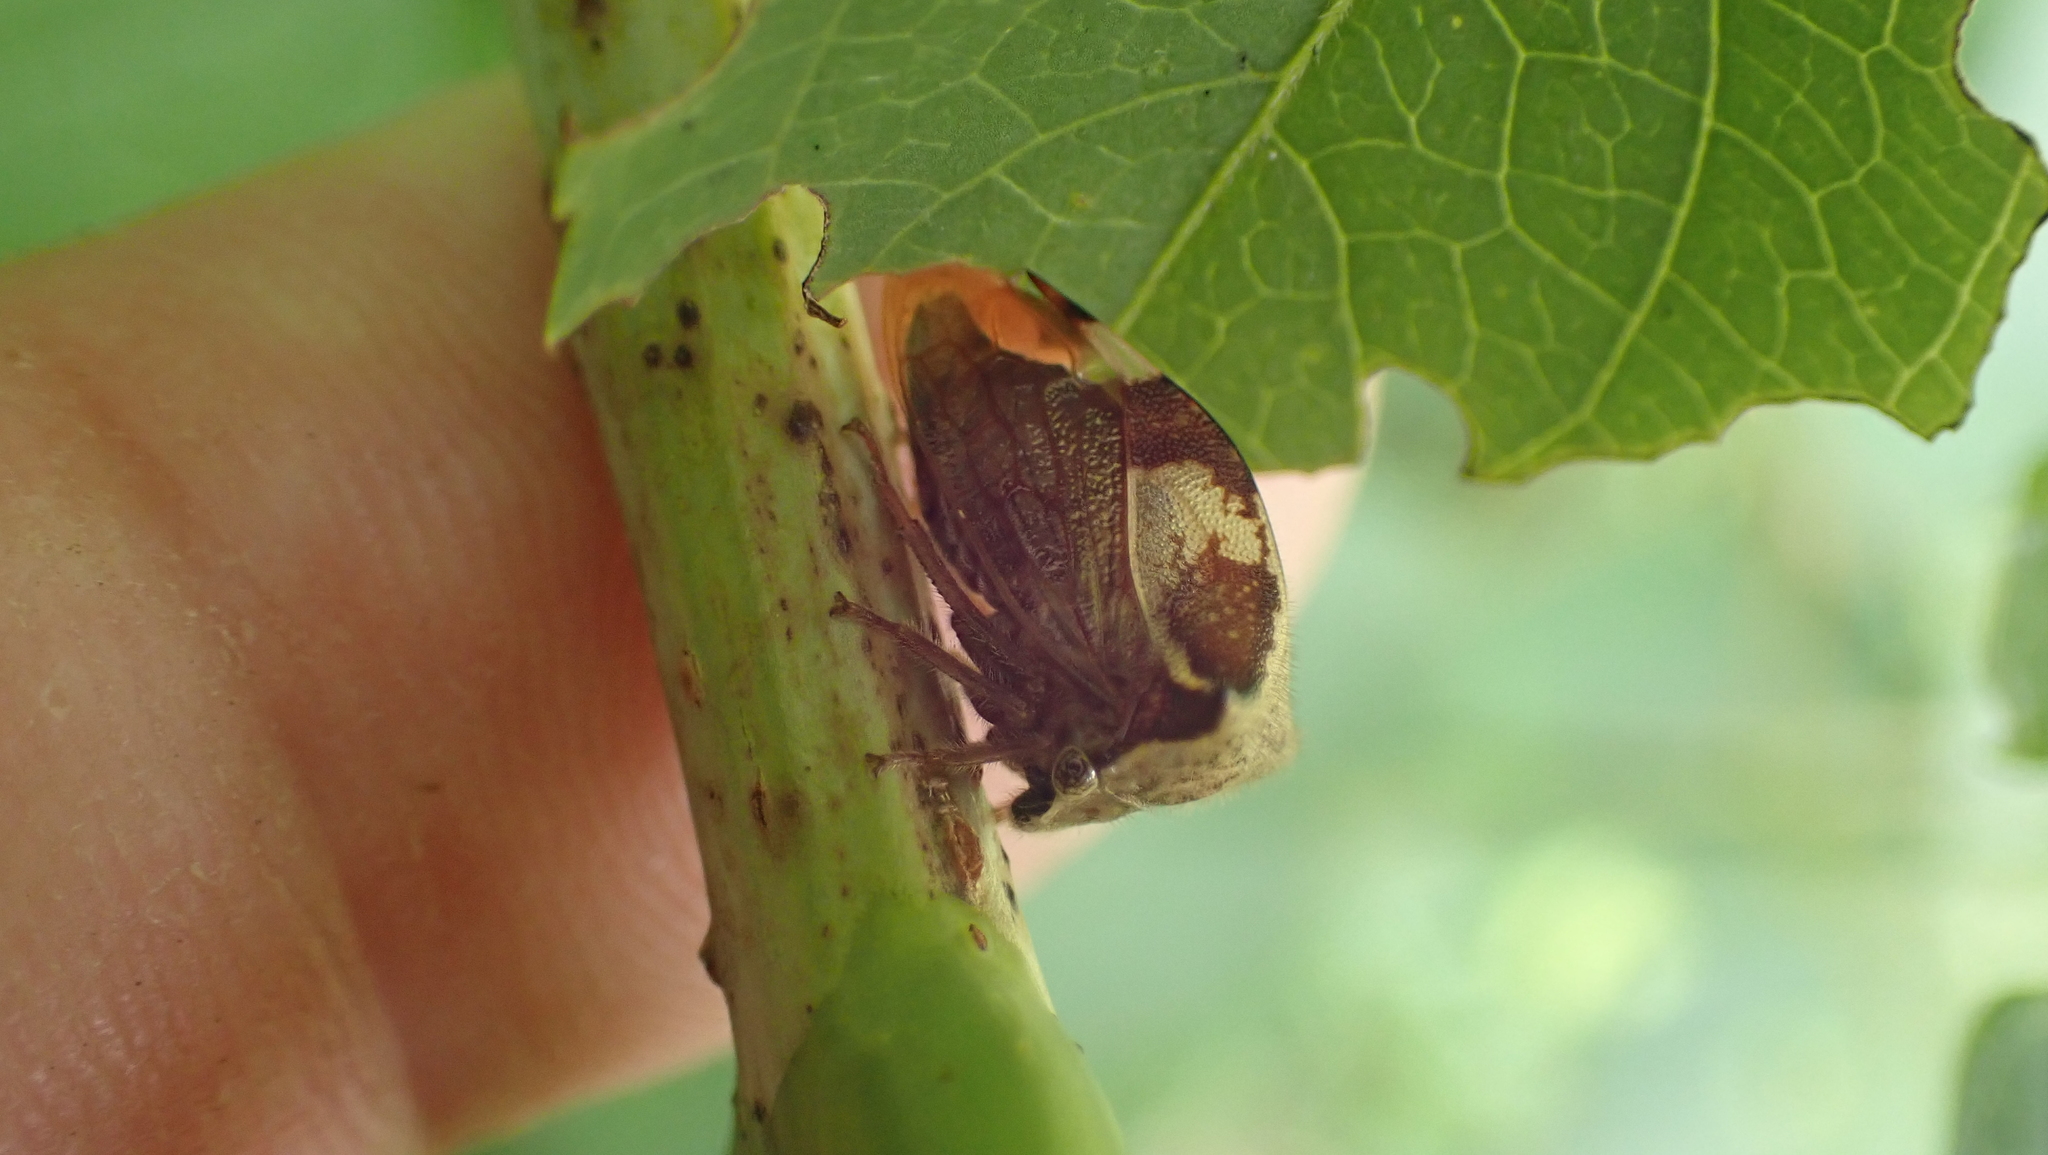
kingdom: Animalia
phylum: Arthropoda
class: Insecta
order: Hemiptera
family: Membracidae
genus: Stictocephala
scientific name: Stictocephala diceros
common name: Two-horned treehopper
